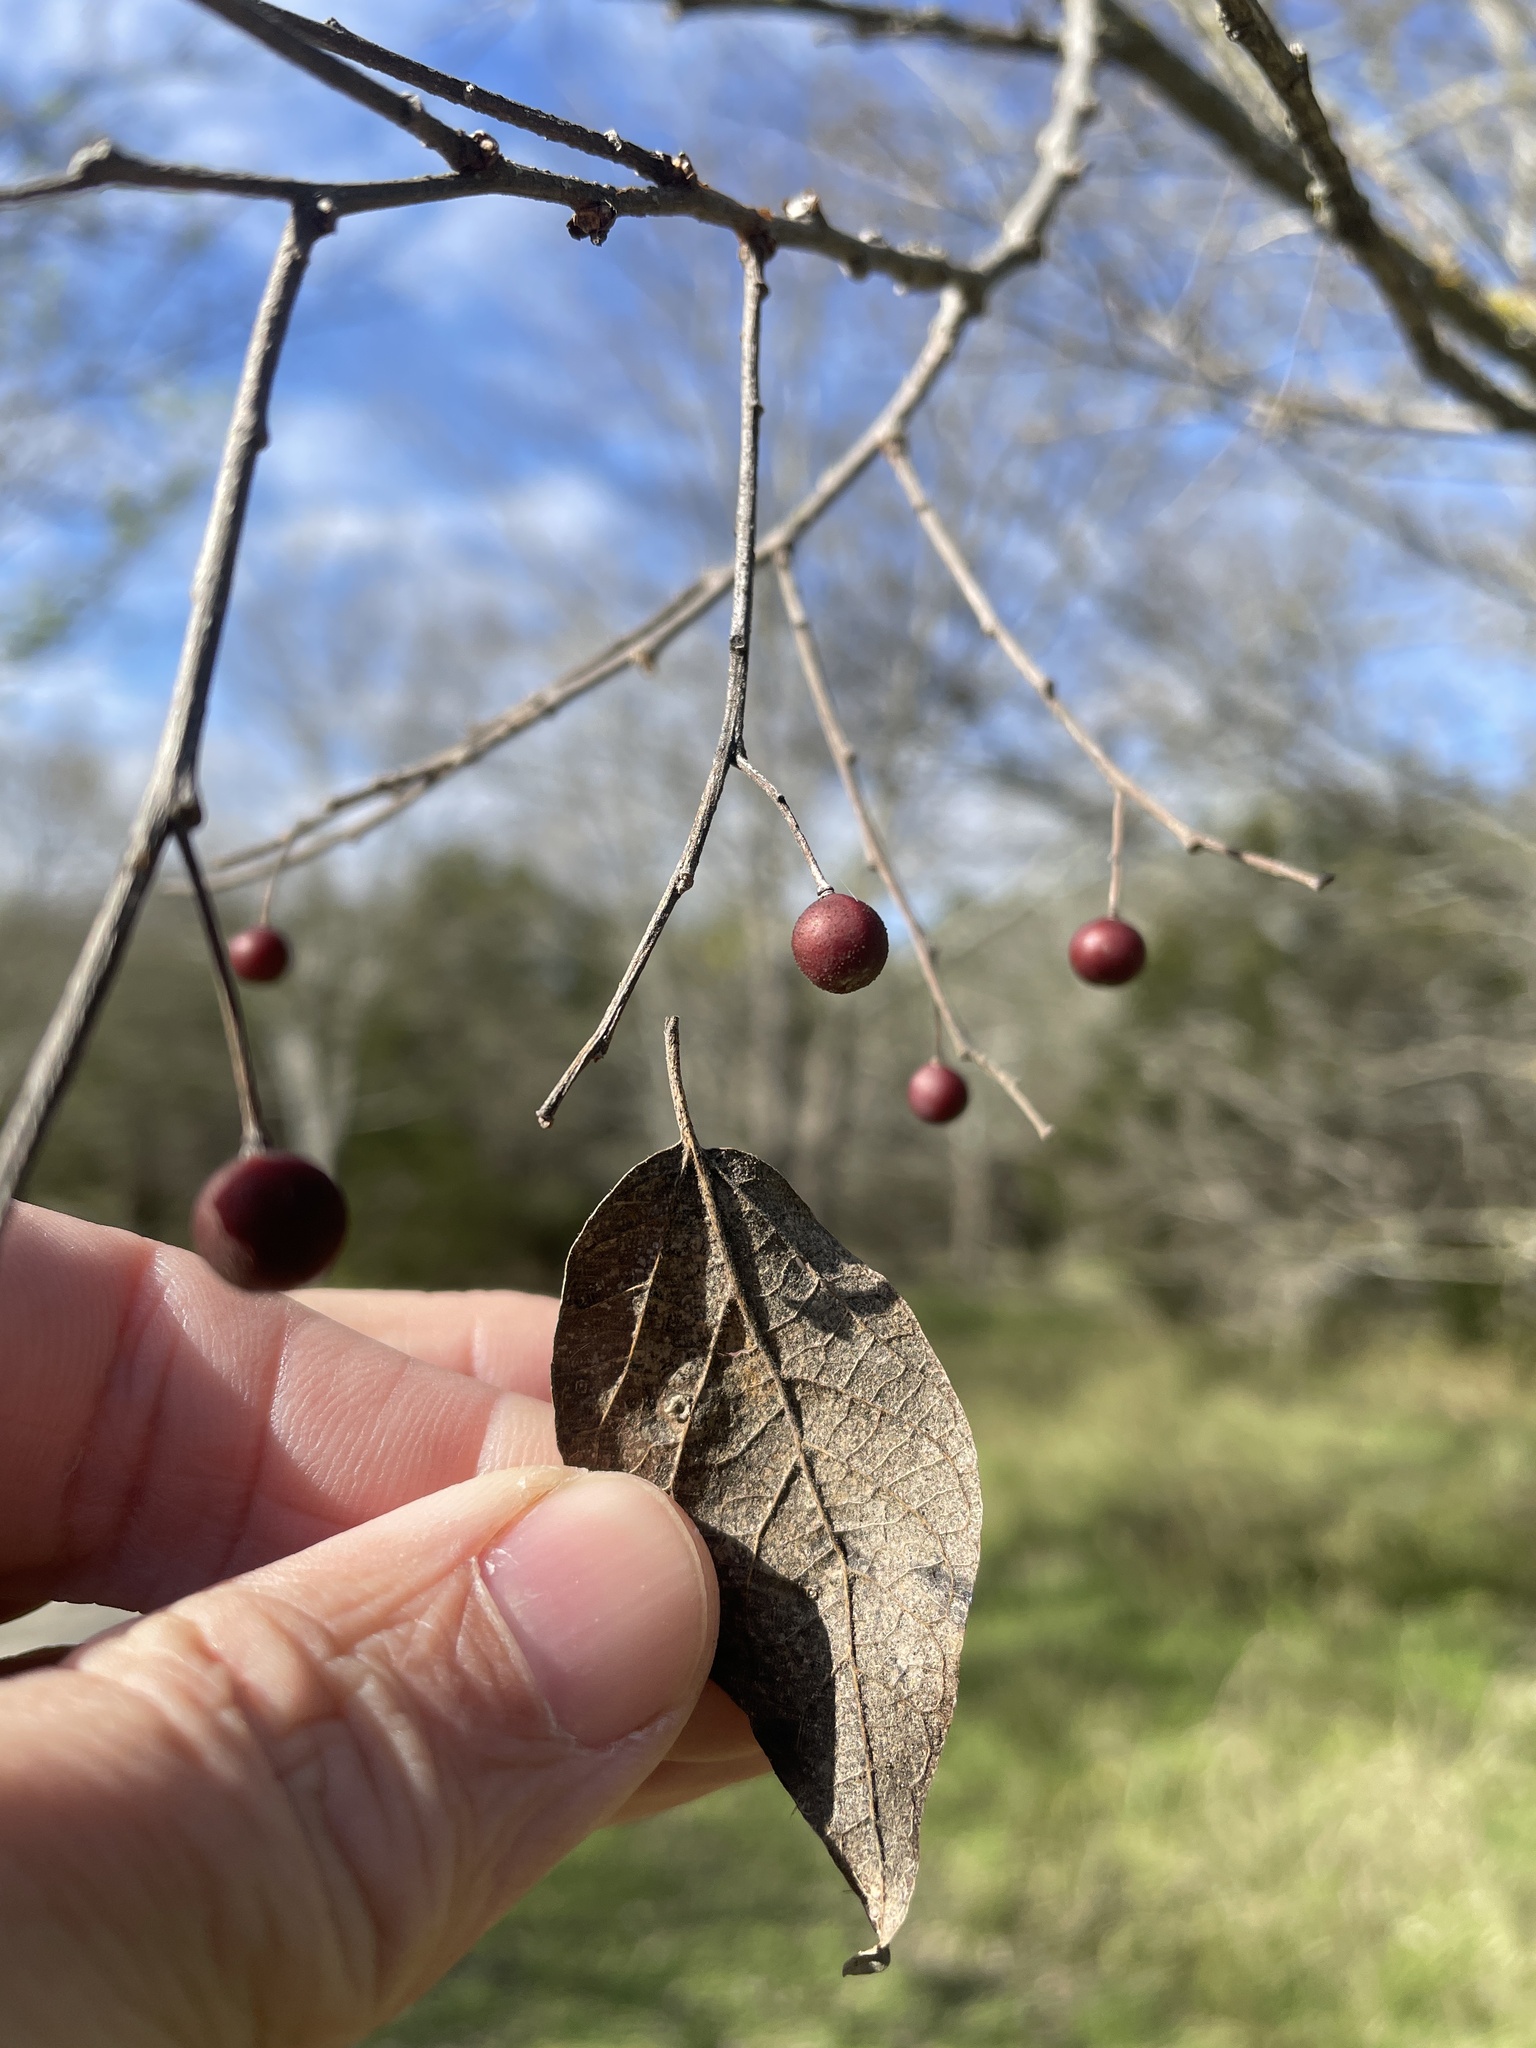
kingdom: Plantae
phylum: Tracheophyta
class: Magnoliopsida
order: Rosales
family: Cannabaceae
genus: Celtis
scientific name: Celtis laevigata
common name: Sugarberry
